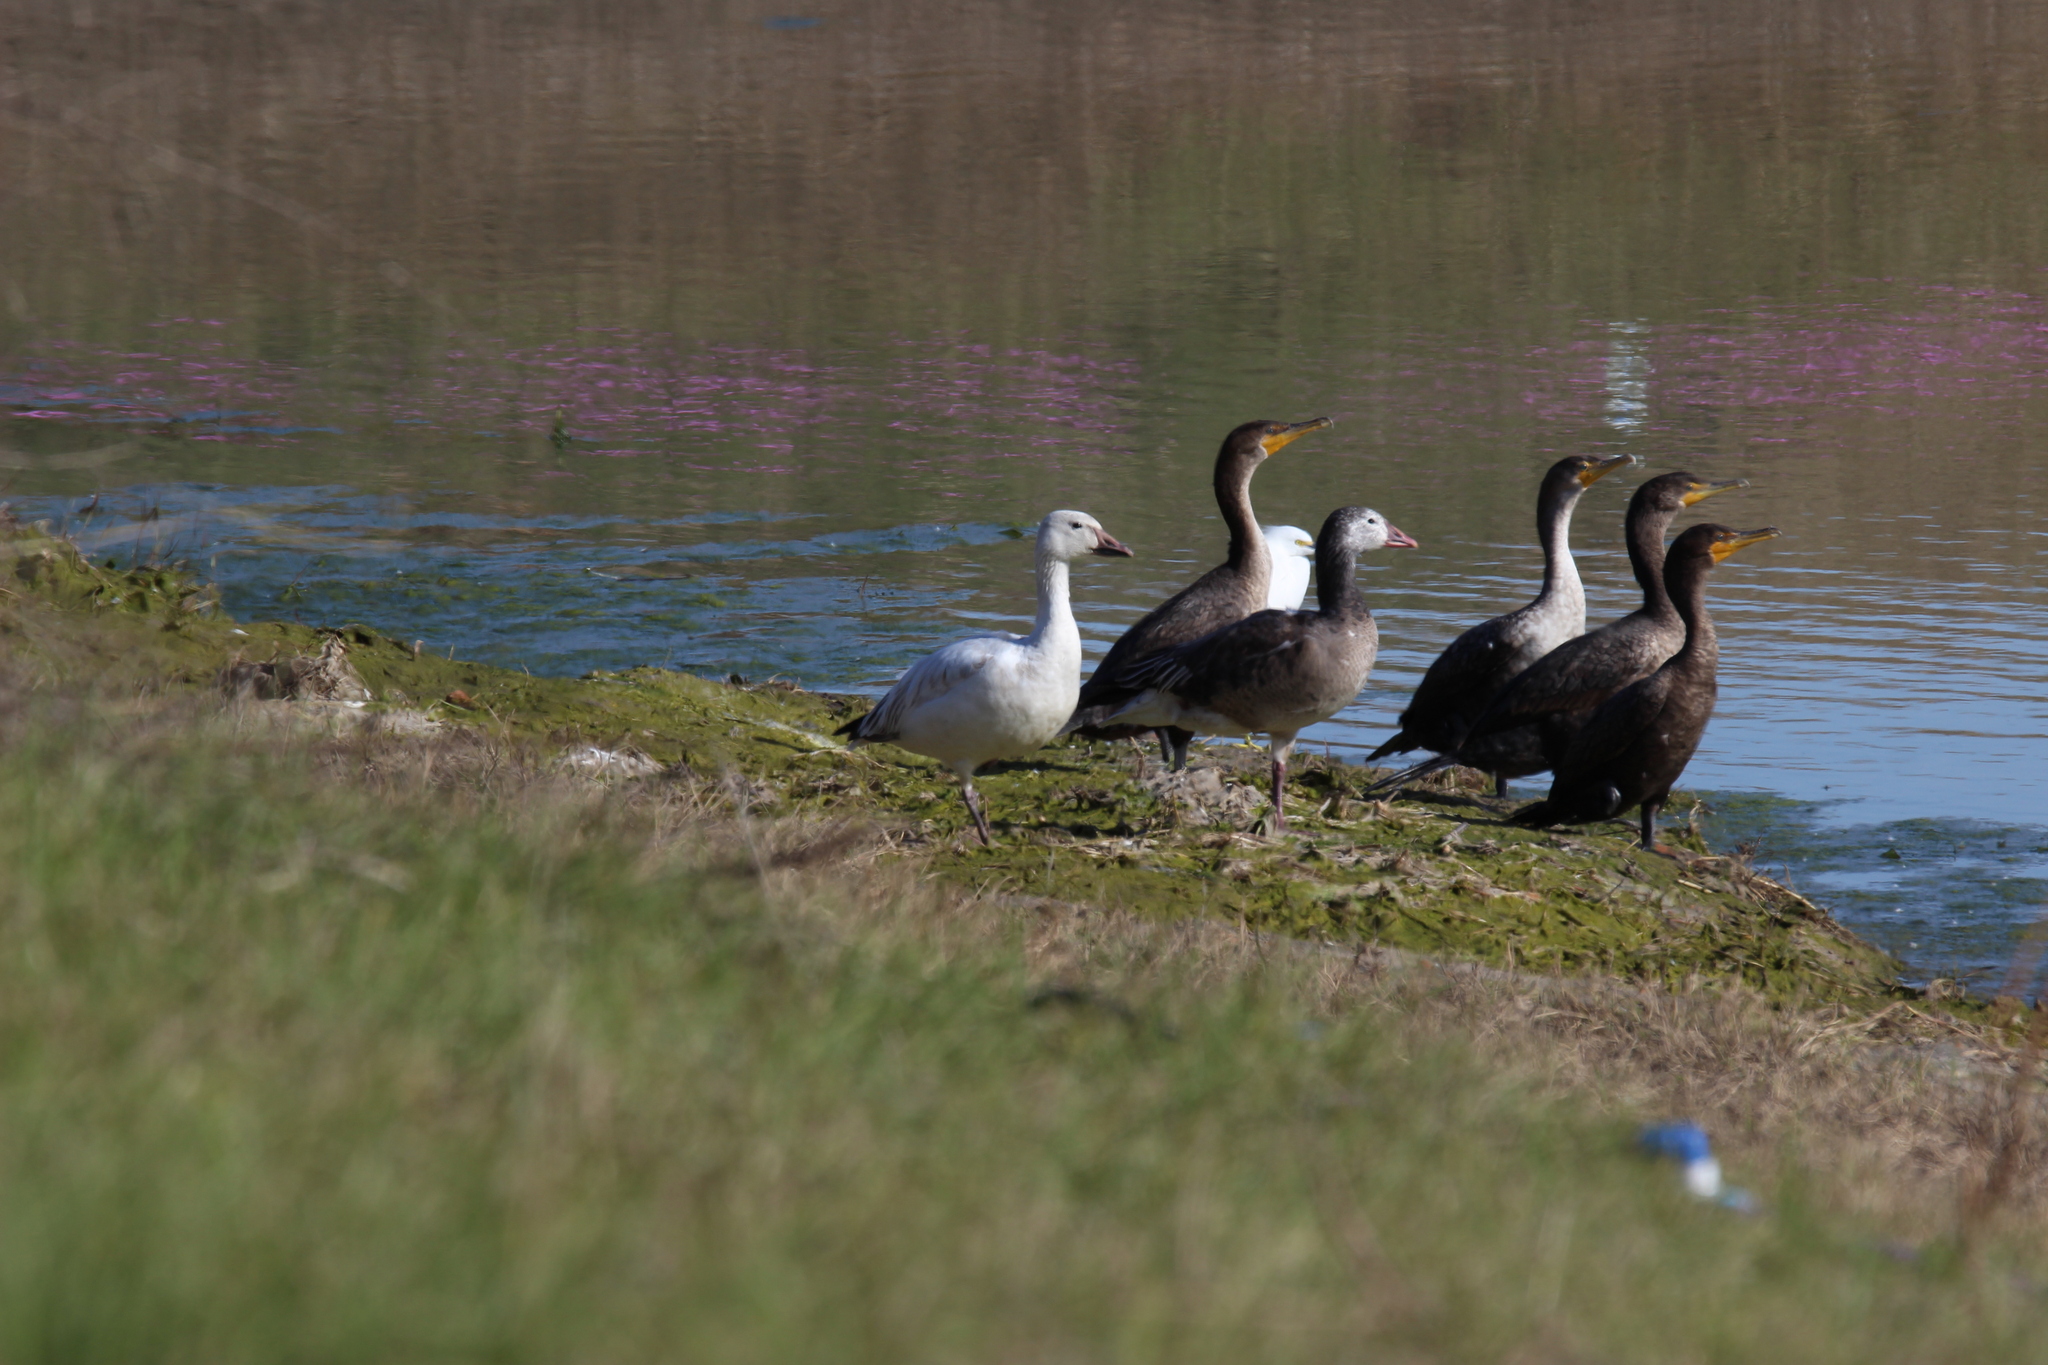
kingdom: Animalia
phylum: Chordata
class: Aves
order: Anseriformes
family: Anatidae
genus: Anser
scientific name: Anser caerulescens
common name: Snow goose
